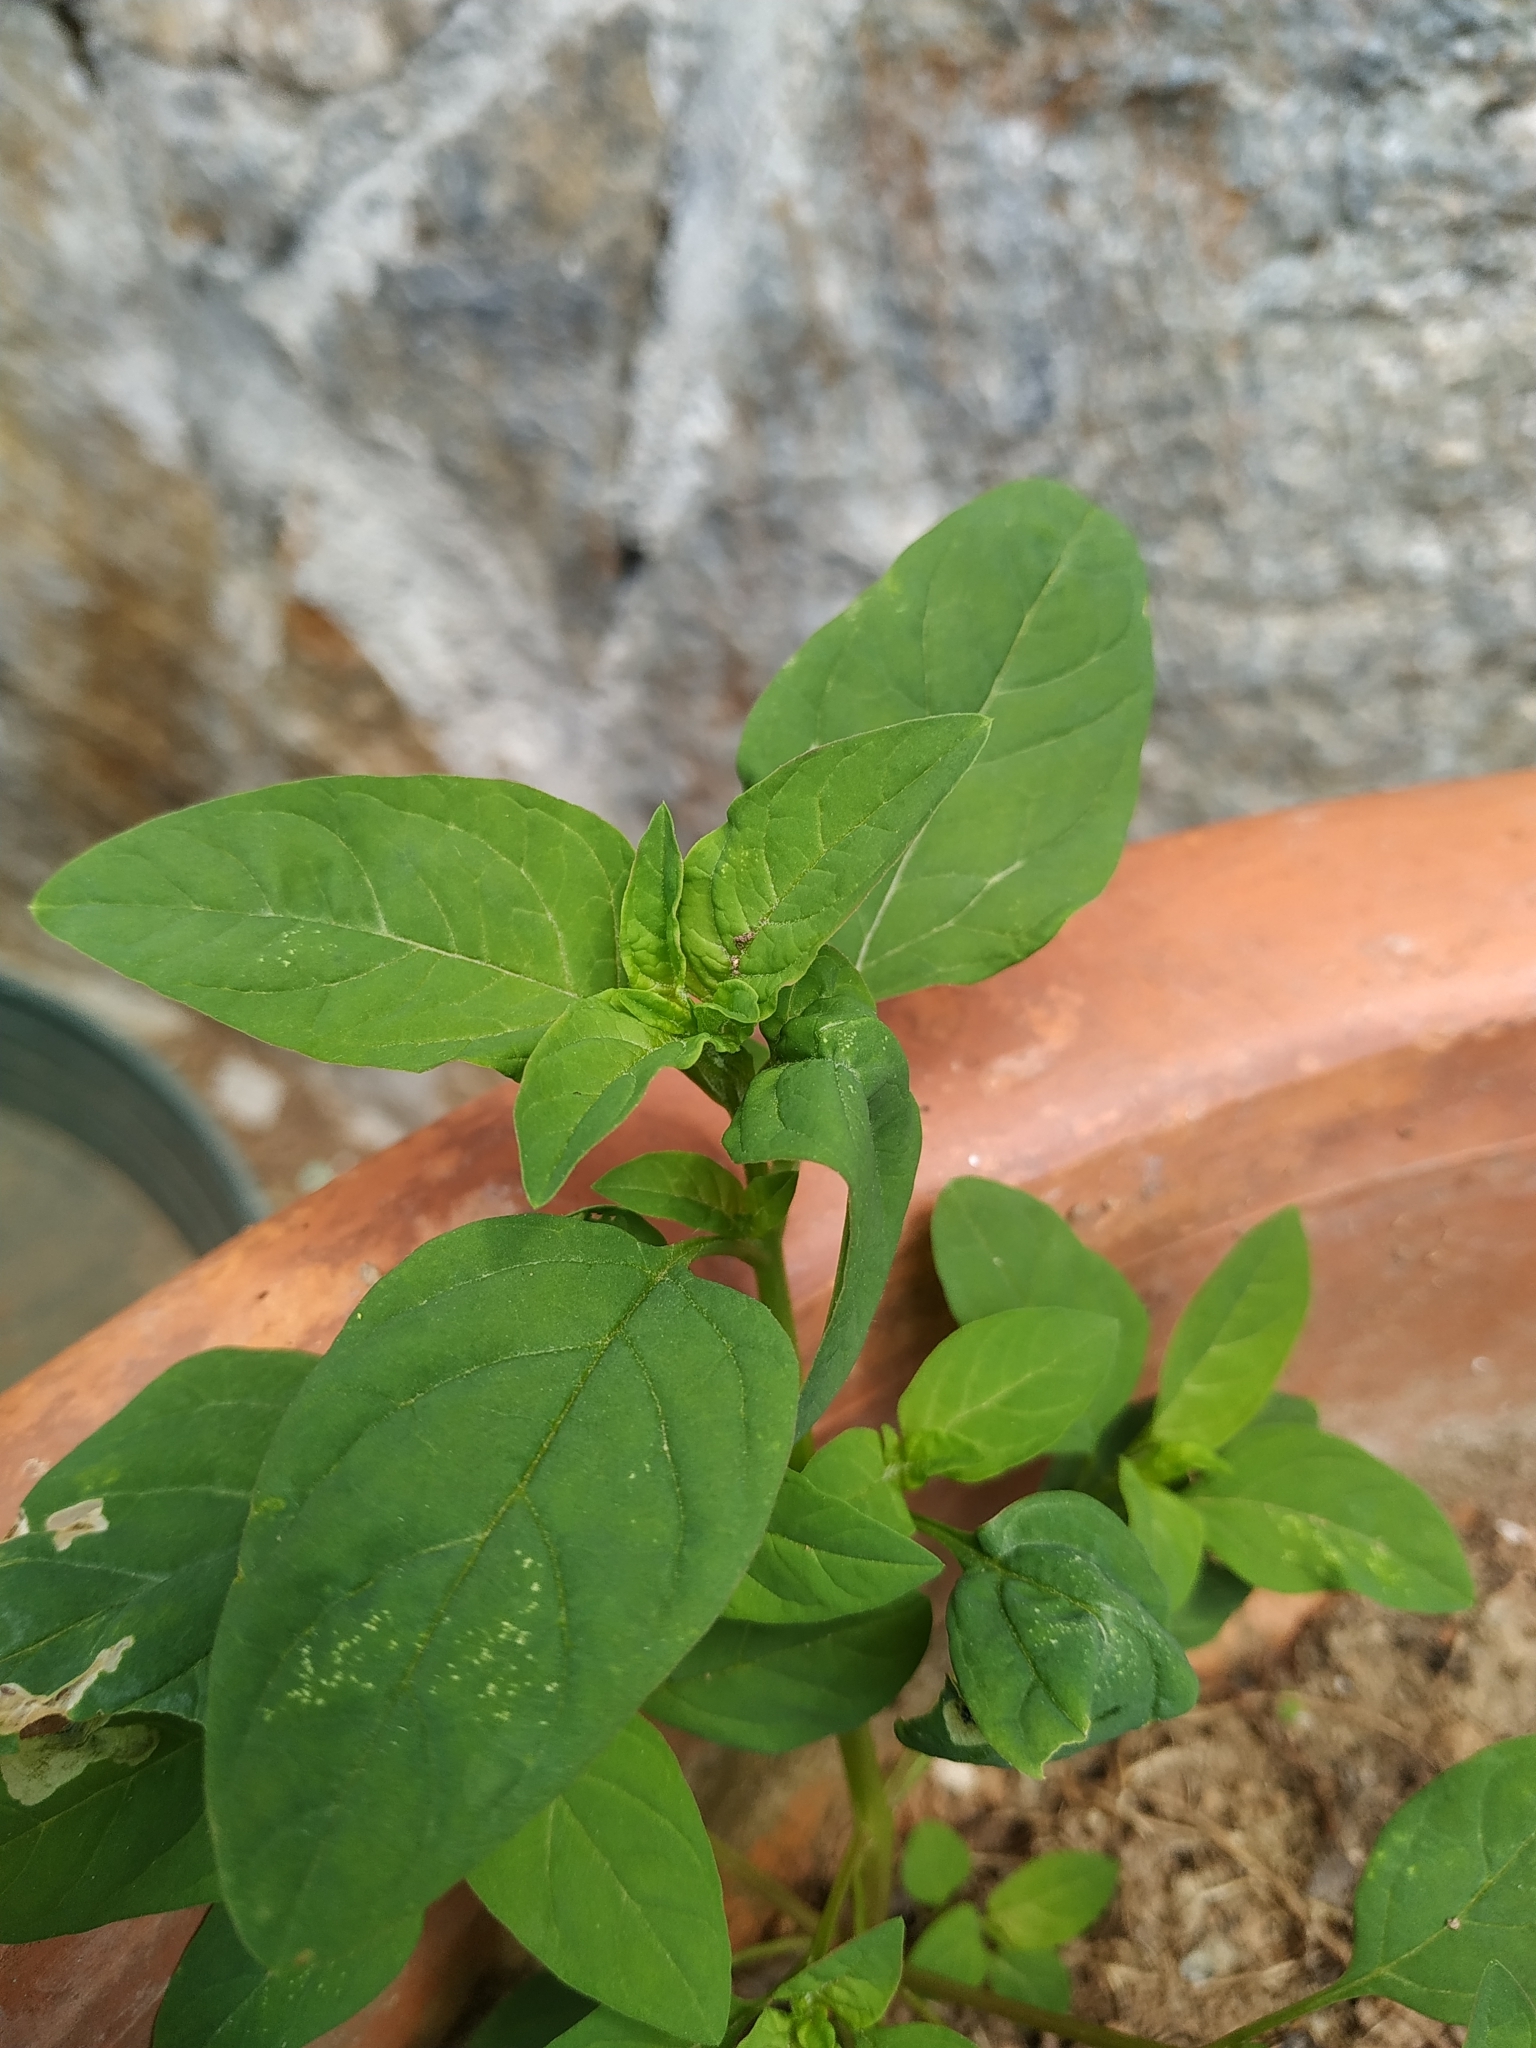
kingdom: Plantae
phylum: Tracheophyta
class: Magnoliopsida
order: Caryophyllales
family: Amaranthaceae
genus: Lipandra
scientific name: Lipandra polysperma
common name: Many-seed goosefoot
